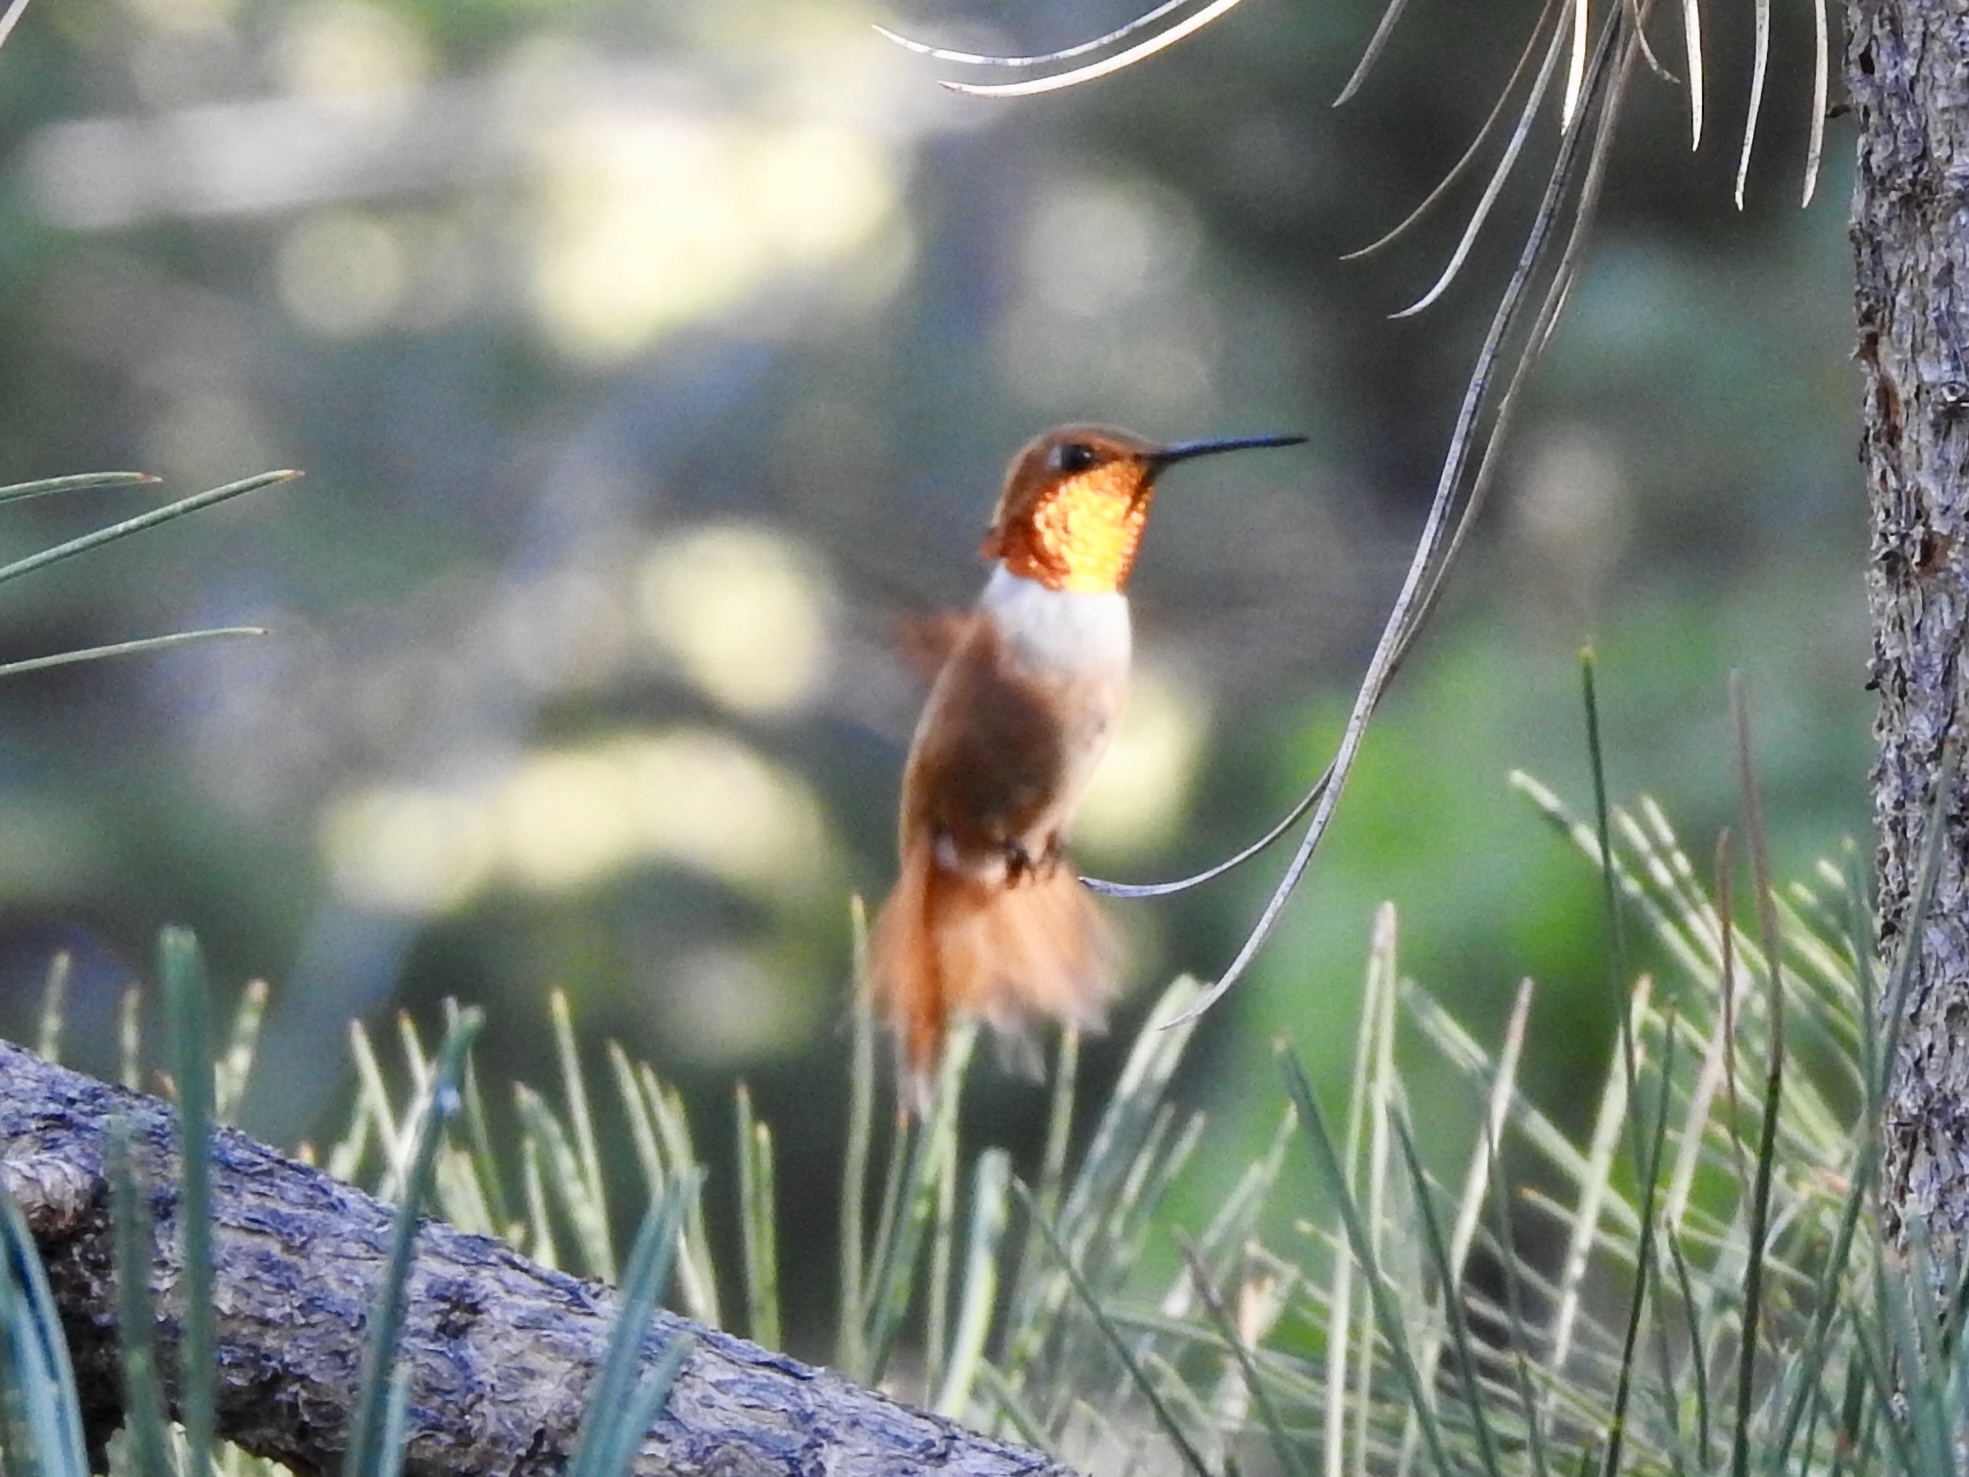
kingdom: Animalia
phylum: Chordata
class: Aves
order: Apodiformes
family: Trochilidae
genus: Selasphorus
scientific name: Selasphorus rufus
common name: Rufous hummingbird
